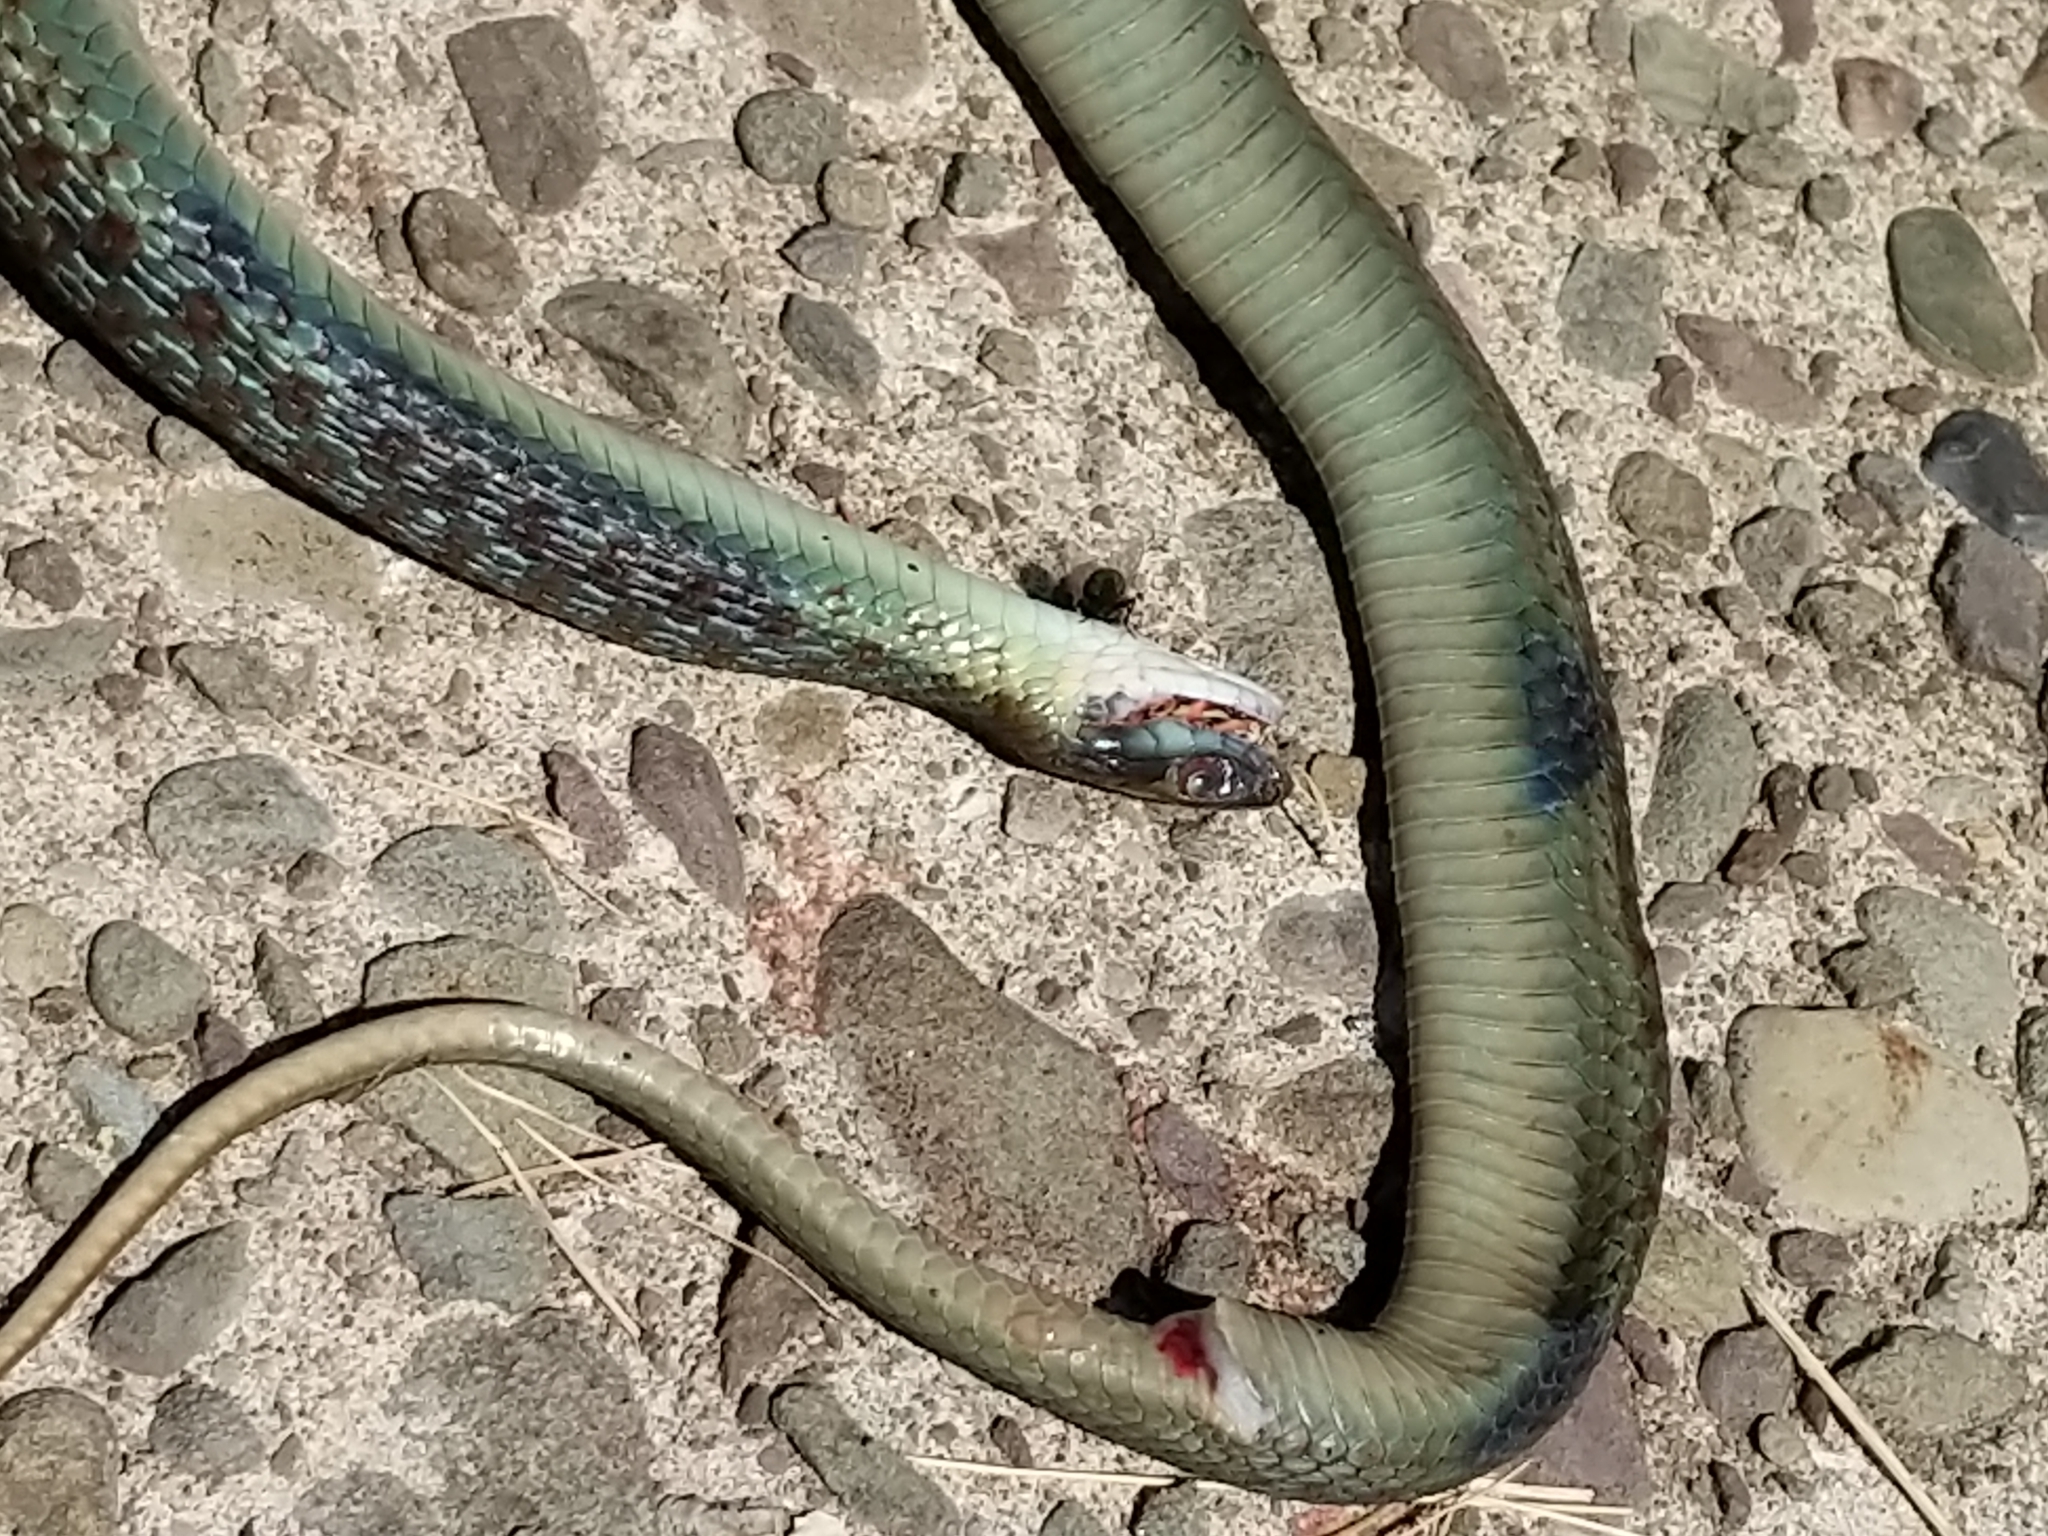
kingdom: Animalia
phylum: Chordata
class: Squamata
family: Colubridae
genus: Thamnophis
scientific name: Thamnophis sirtalis
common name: Common garter snake
